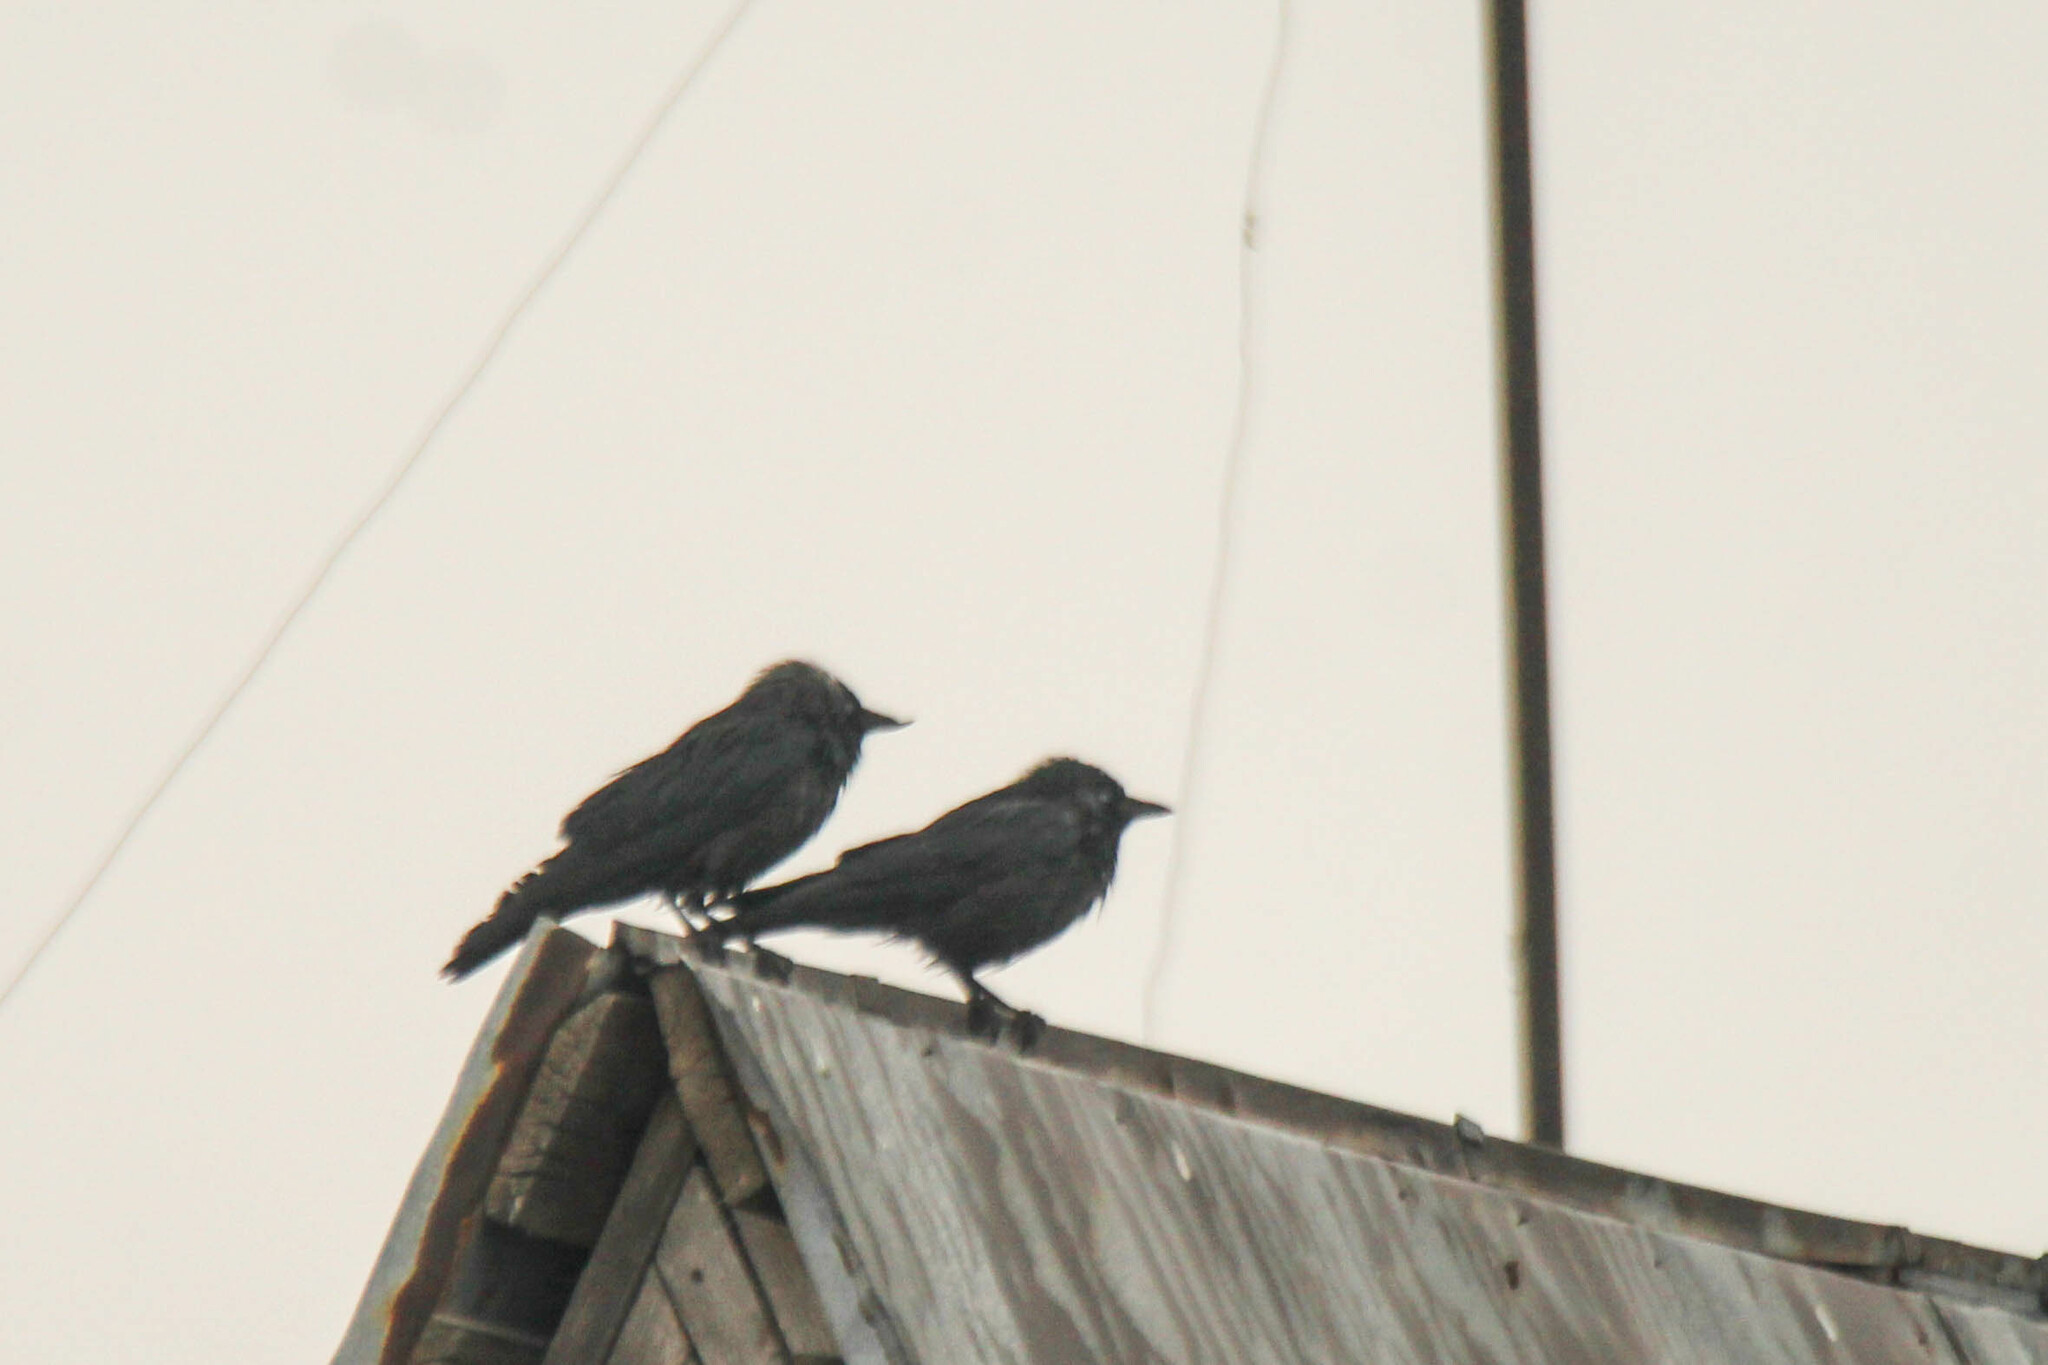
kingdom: Animalia
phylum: Chordata
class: Aves
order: Passeriformes
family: Corvidae
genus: Coloeus
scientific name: Coloeus monedula
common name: Western jackdaw
